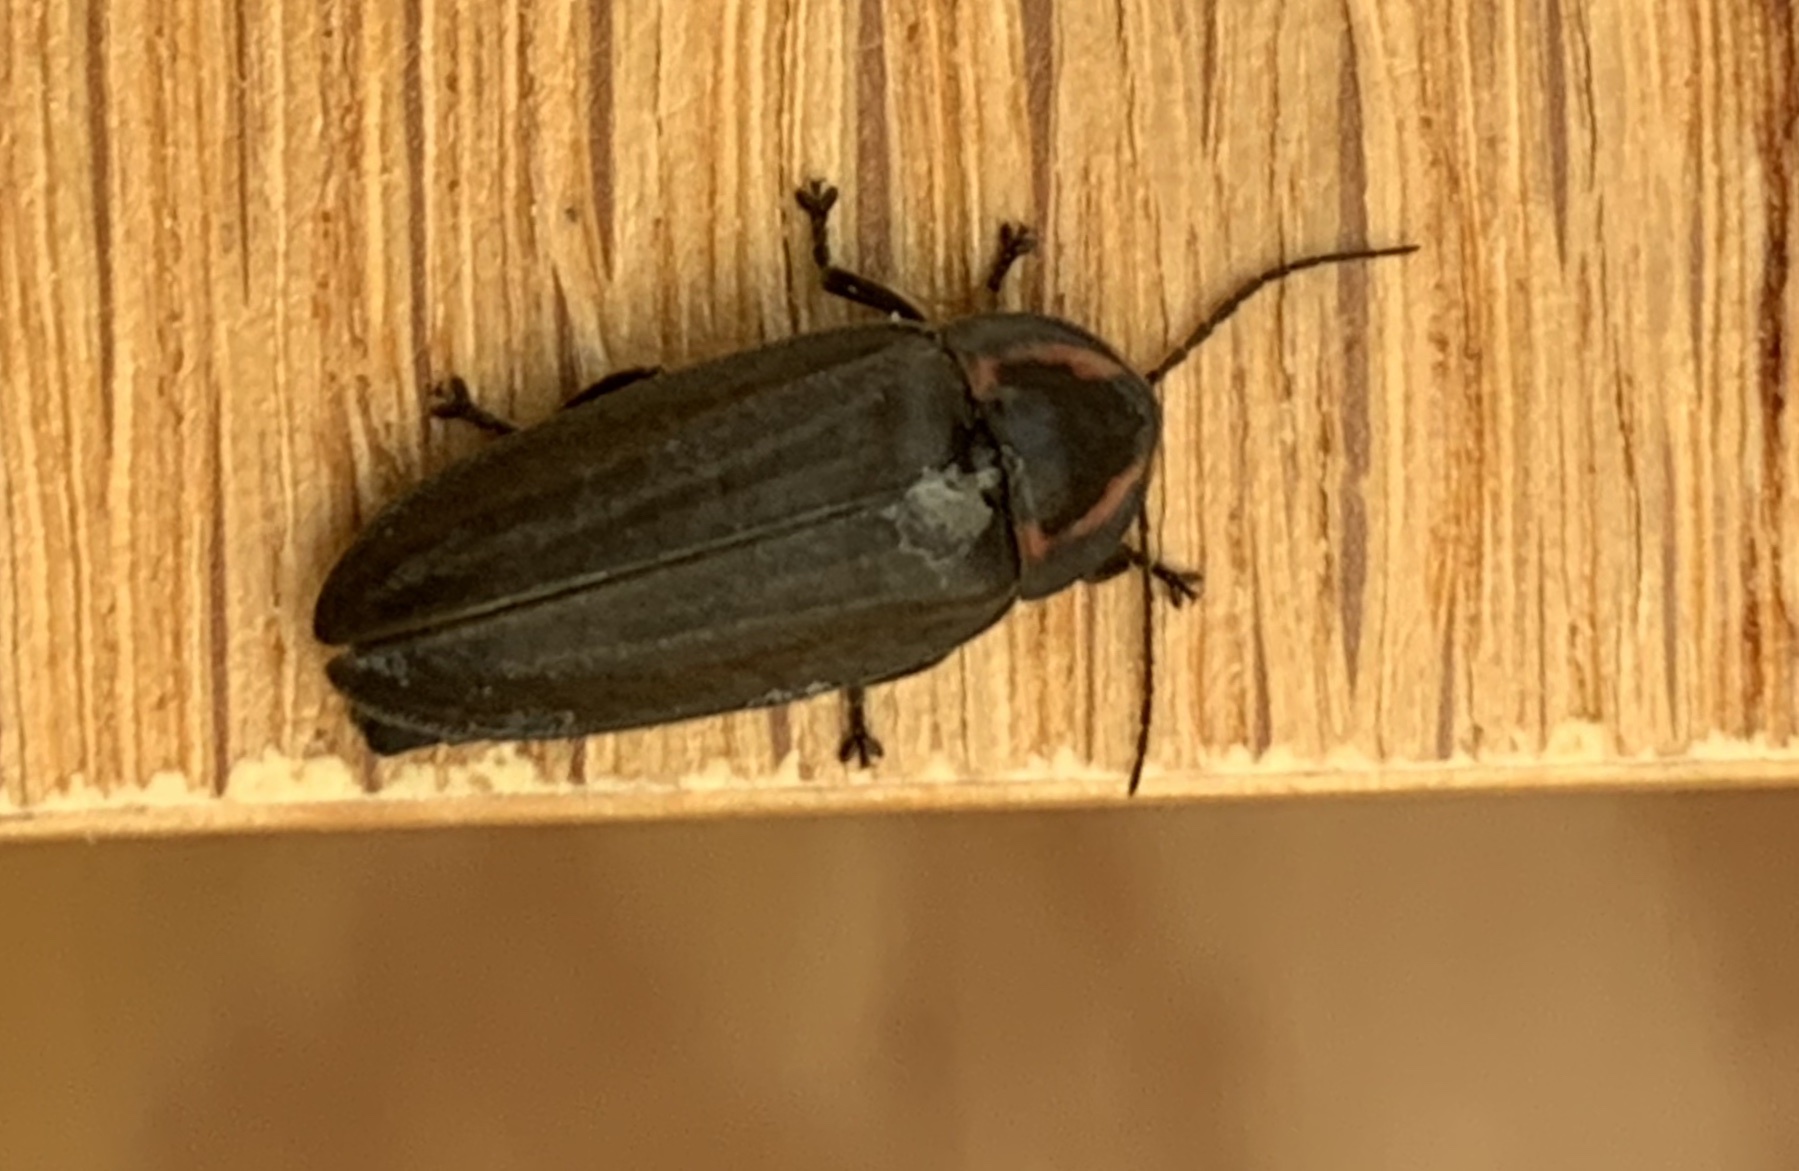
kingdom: Animalia
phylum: Arthropoda
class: Insecta
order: Coleoptera
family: Lampyridae
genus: Photinus
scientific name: Photinus corrusca
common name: Winter firefly
